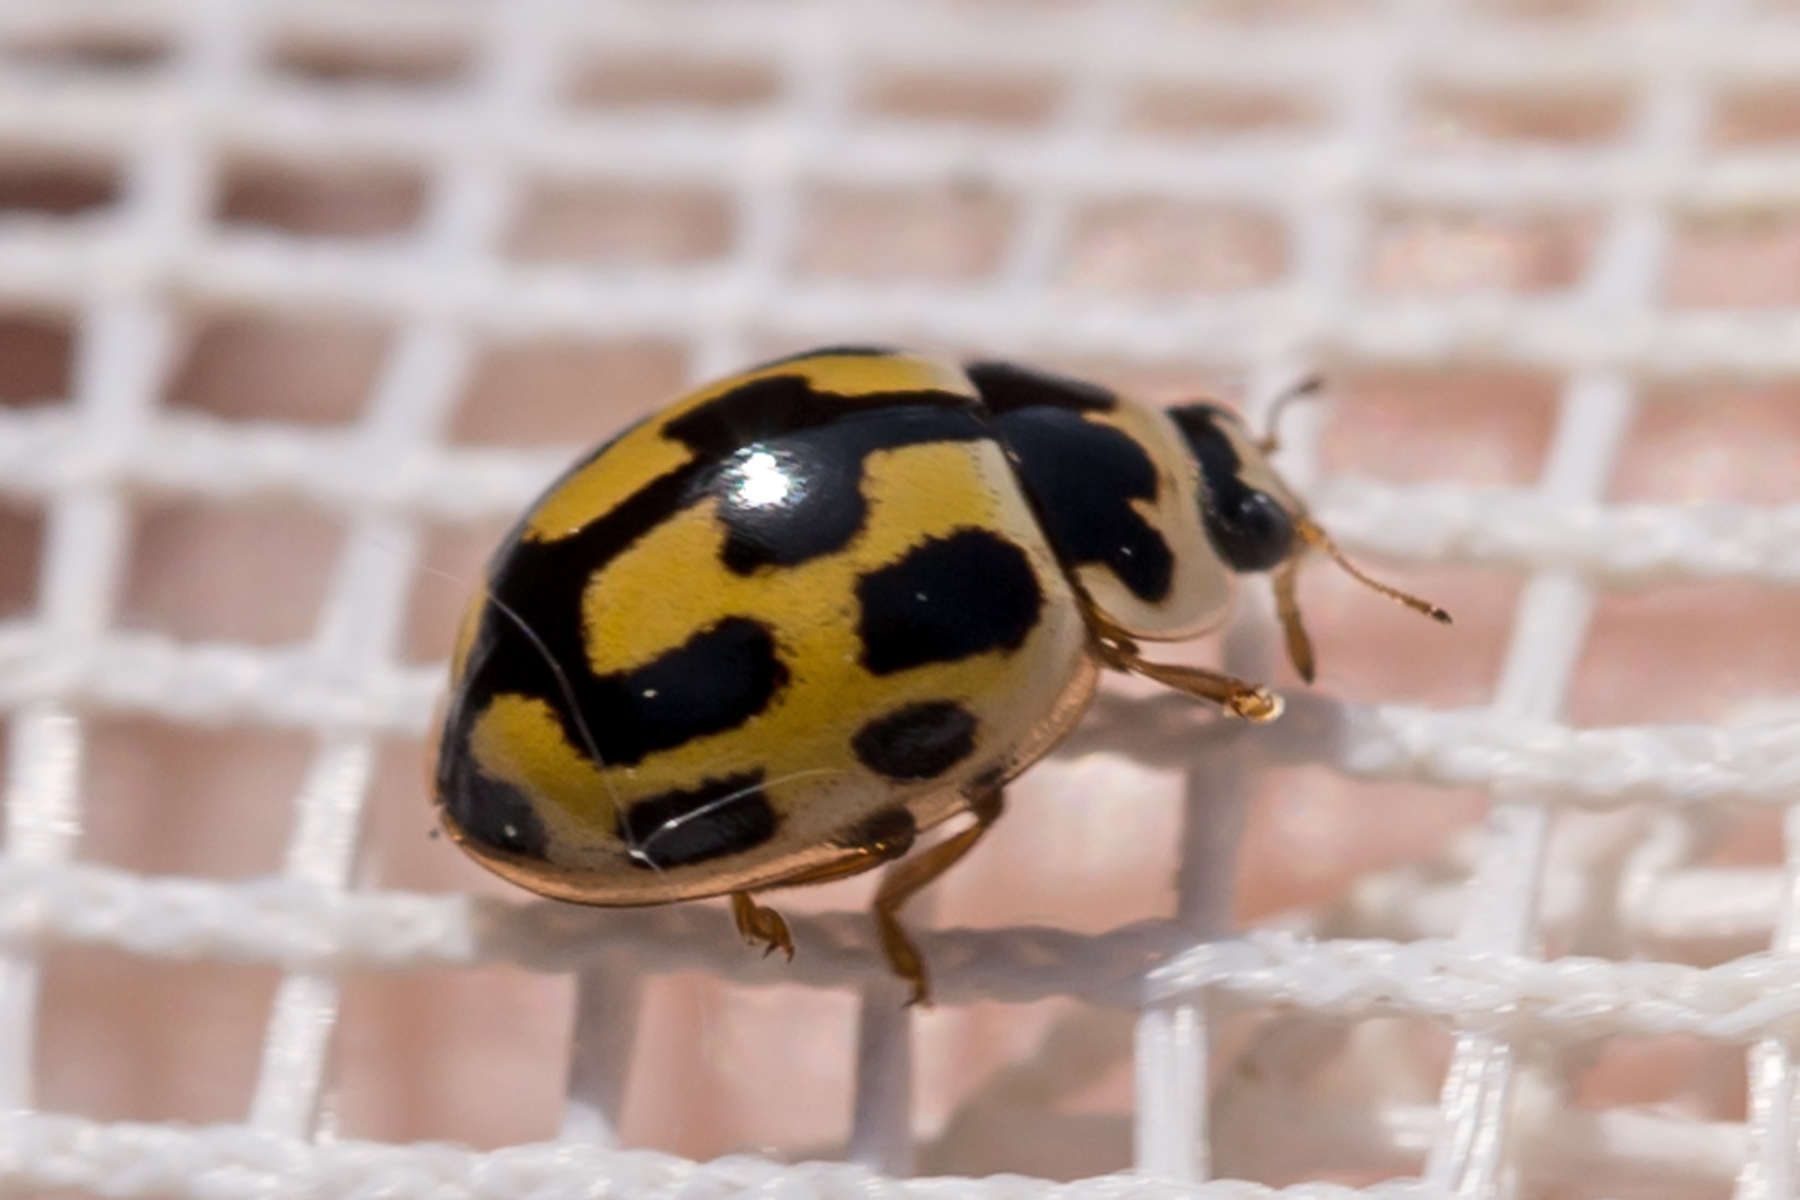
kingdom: Animalia
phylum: Arthropoda
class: Insecta
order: Coleoptera
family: Coccinellidae
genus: Propylaea
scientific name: Propylaea quatuordecimpunctata
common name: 14-spotted ladybird beetle
